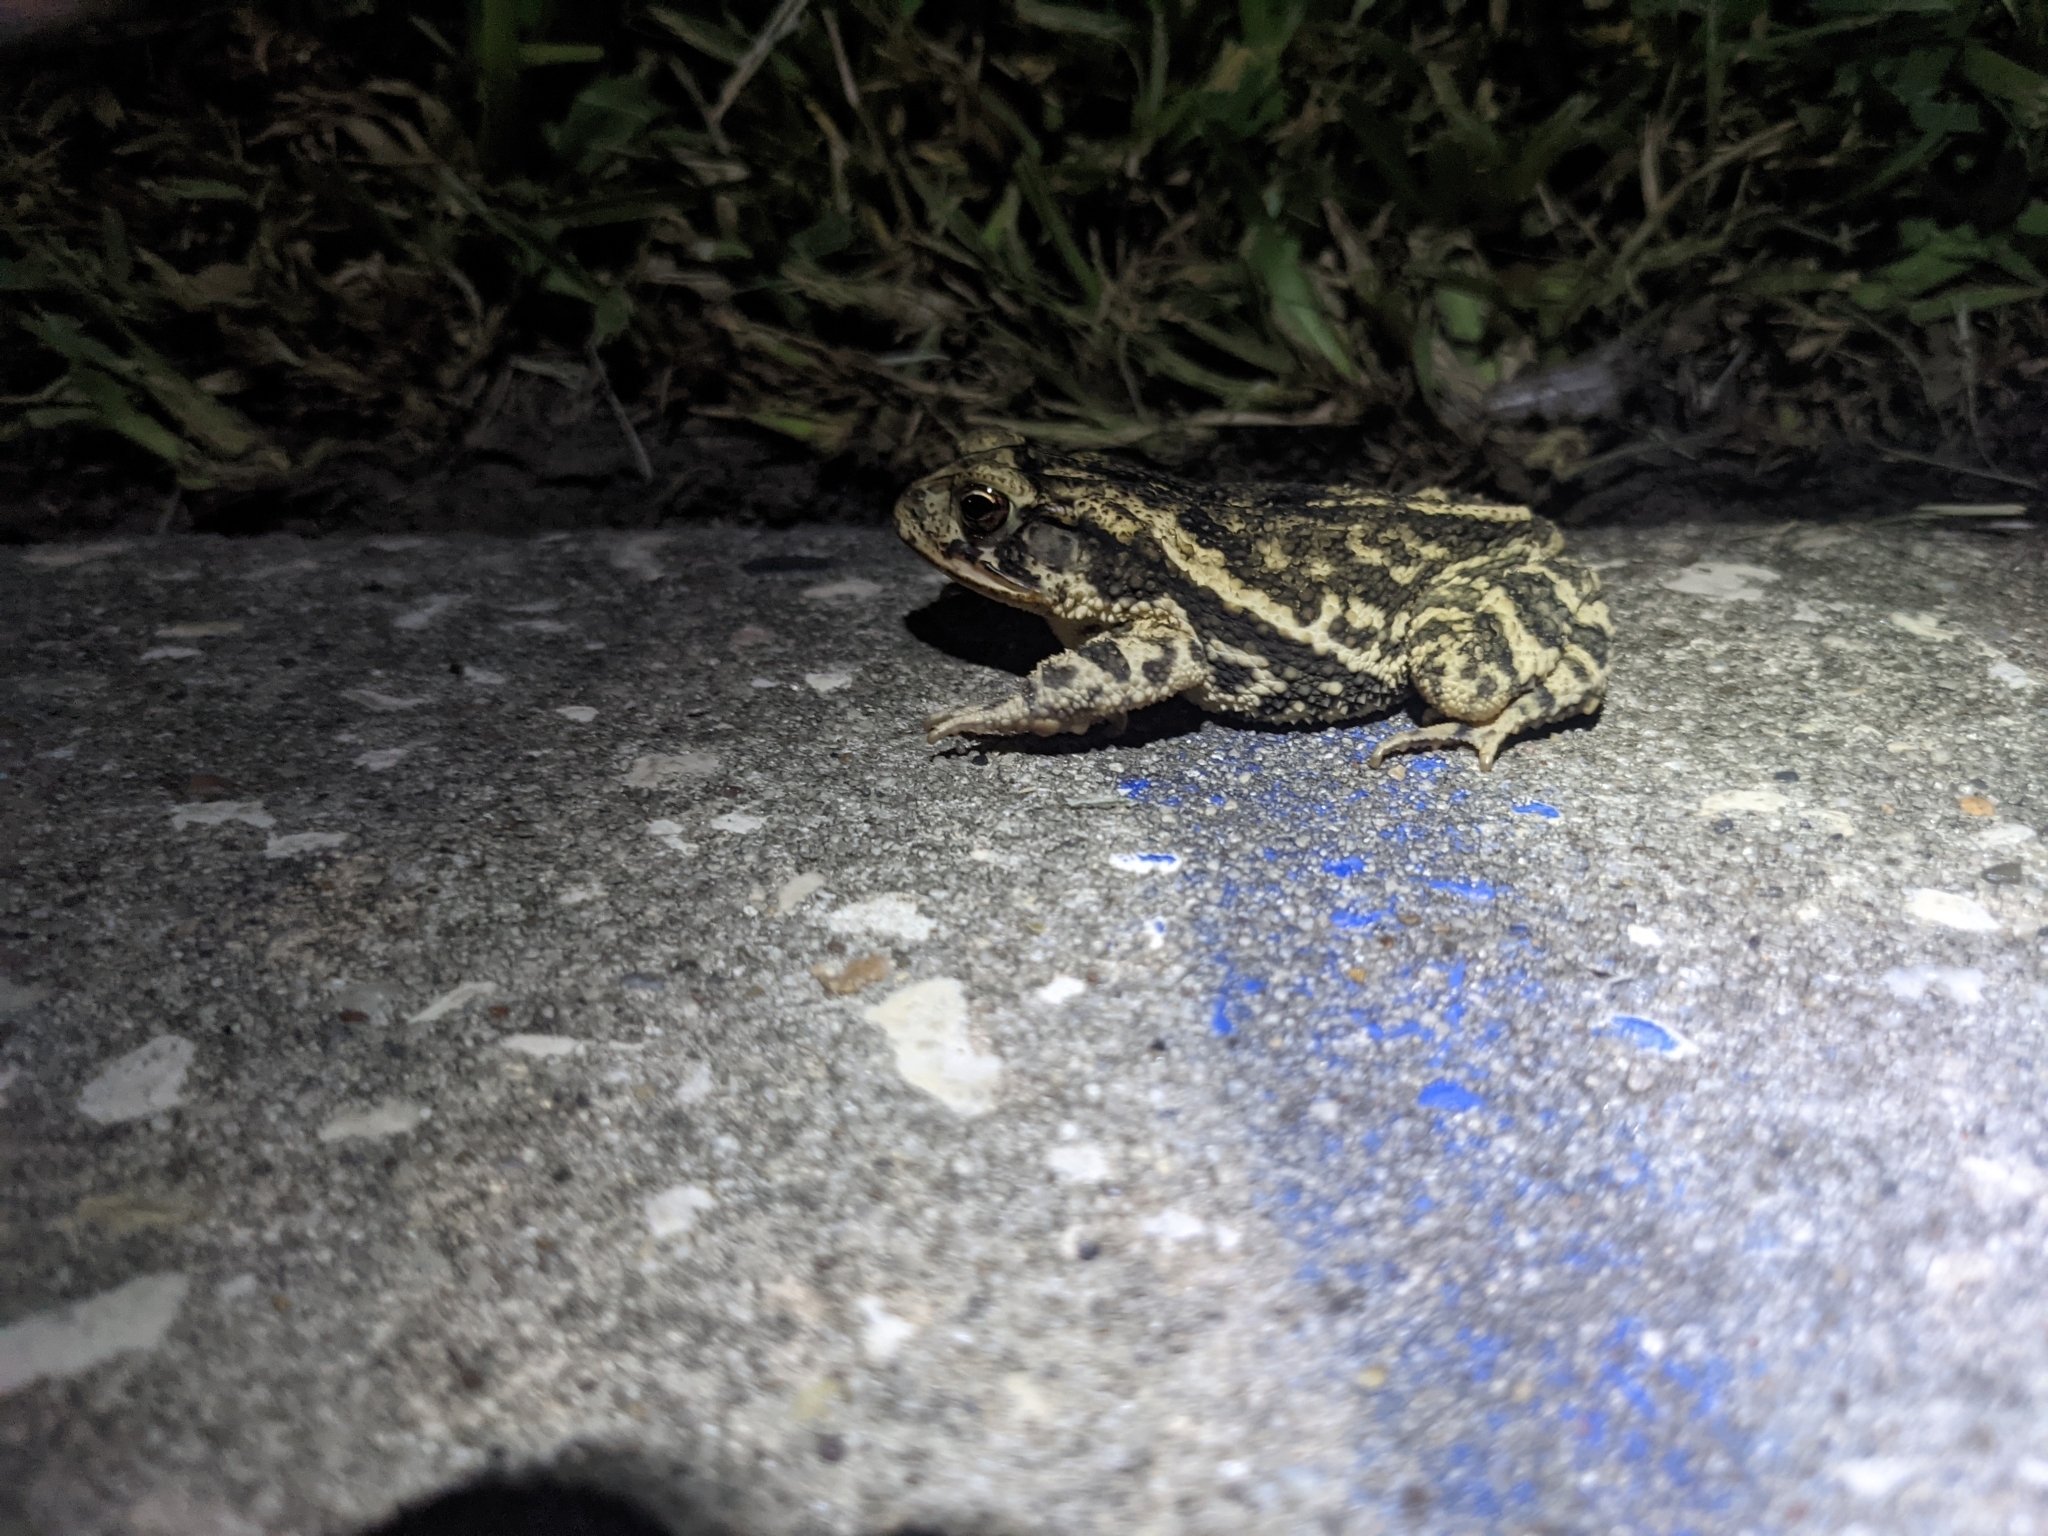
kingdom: Animalia
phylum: Chordata
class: Amphibia
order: Anura
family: Bufonidae
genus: Incilius
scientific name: Incilius nebulifer
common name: Gulf coast toad
